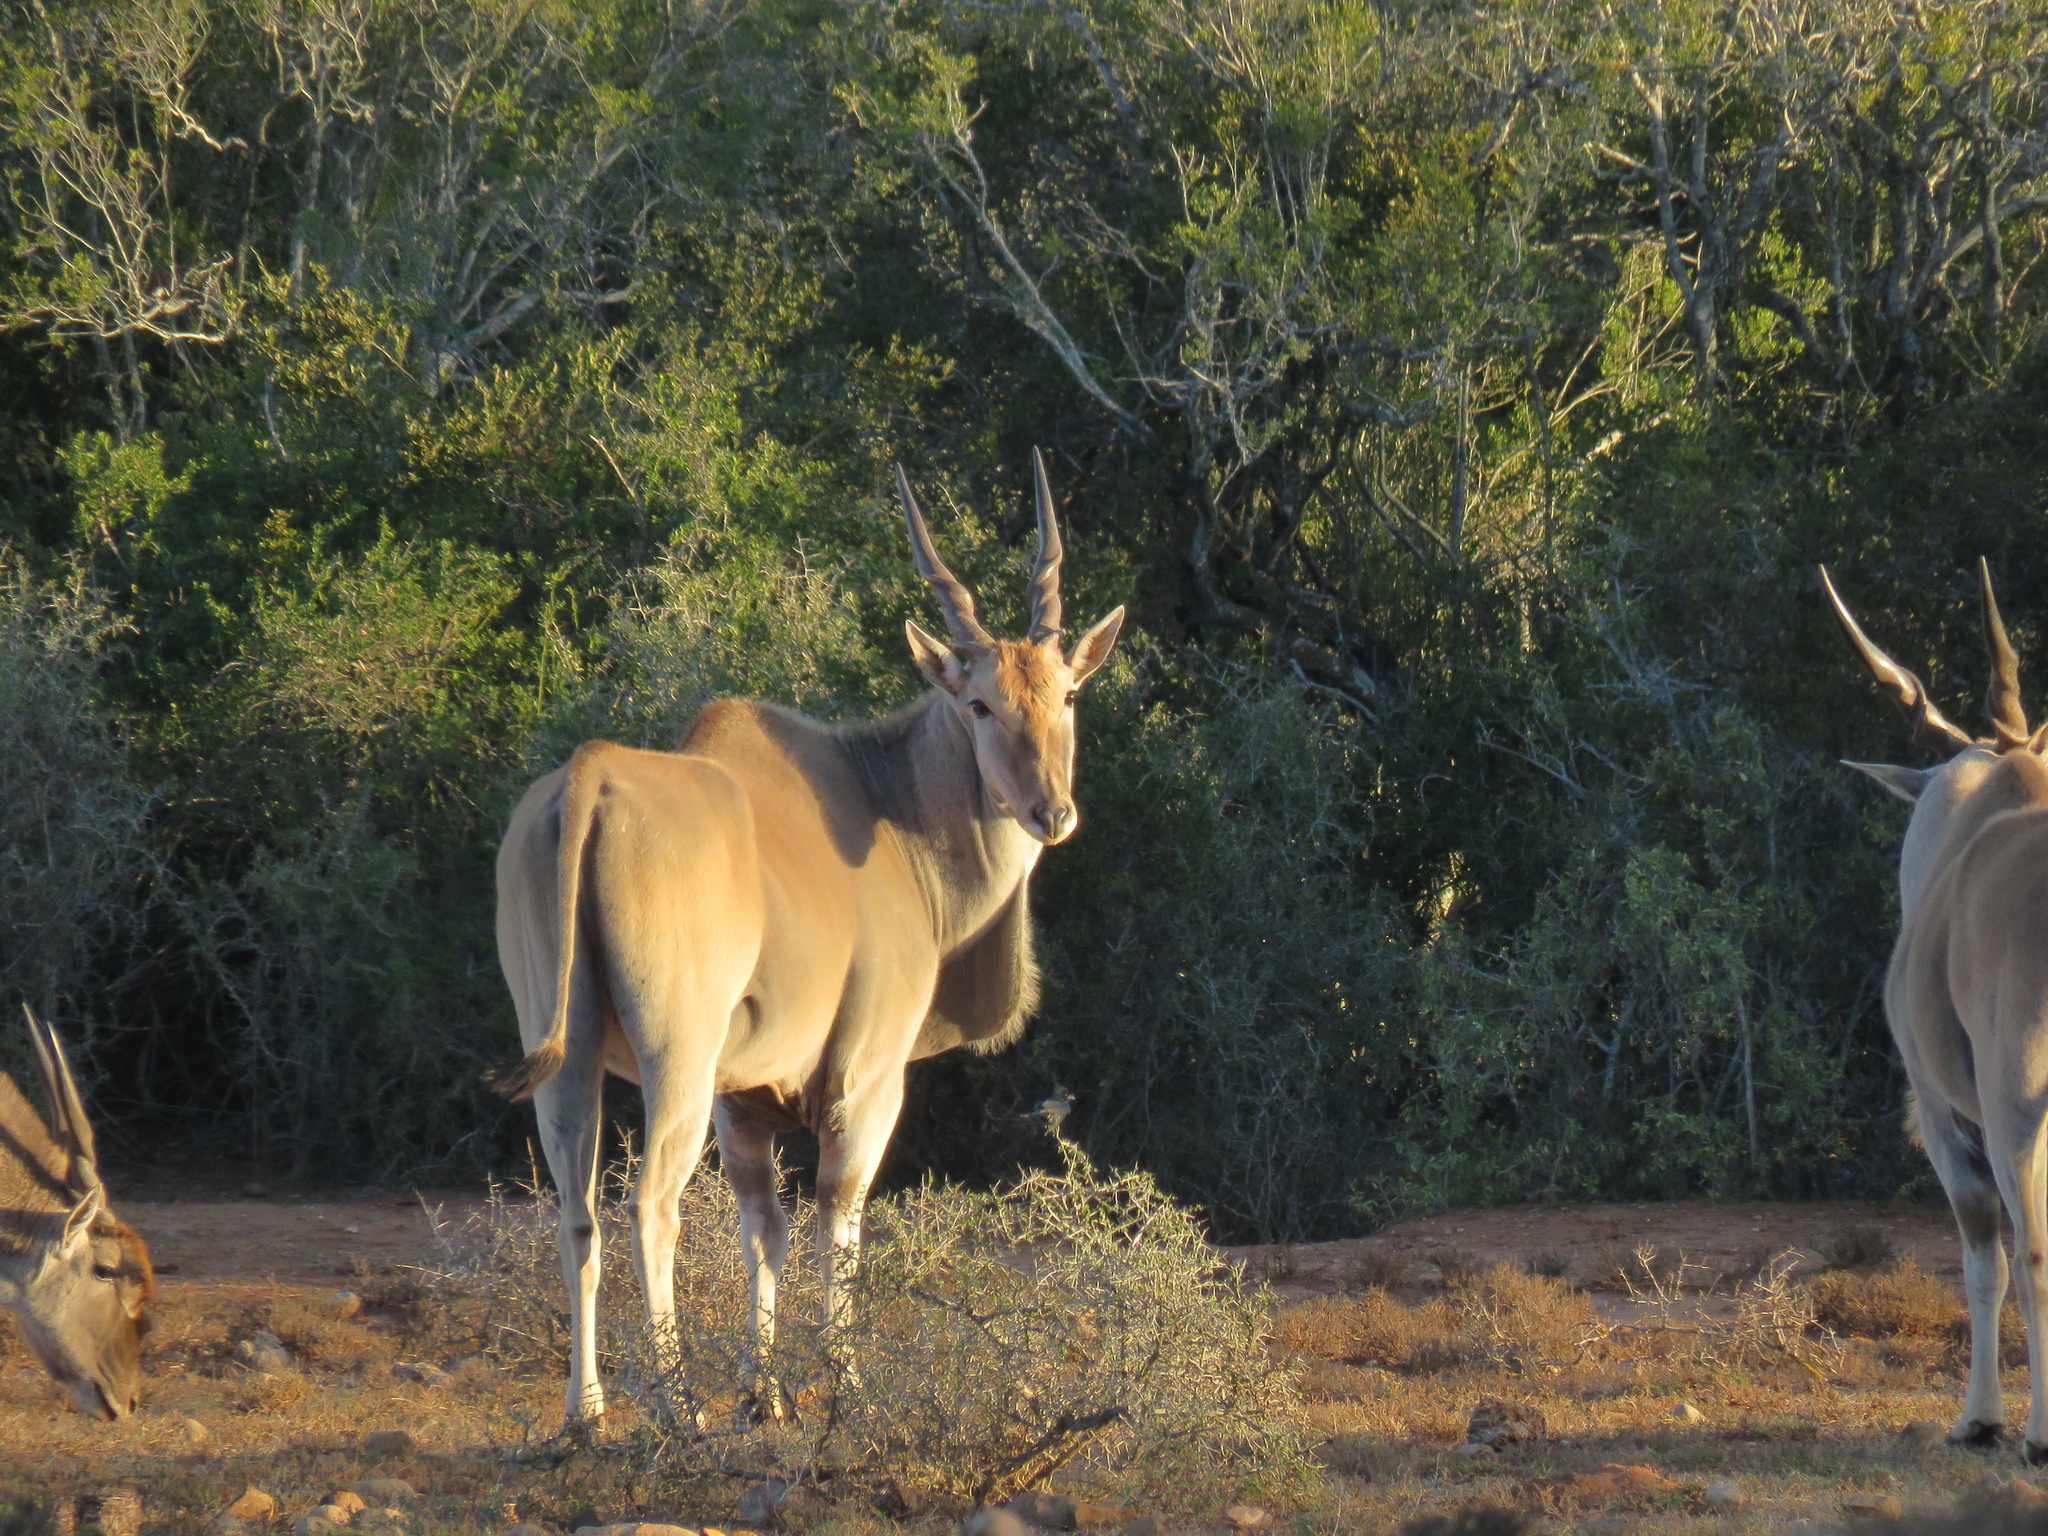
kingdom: Animalia
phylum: Chordata
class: Mammalia
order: Artiodactyla
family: Bovidae
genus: Taurotragus
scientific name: Taurotragus oryx
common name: Common eland
